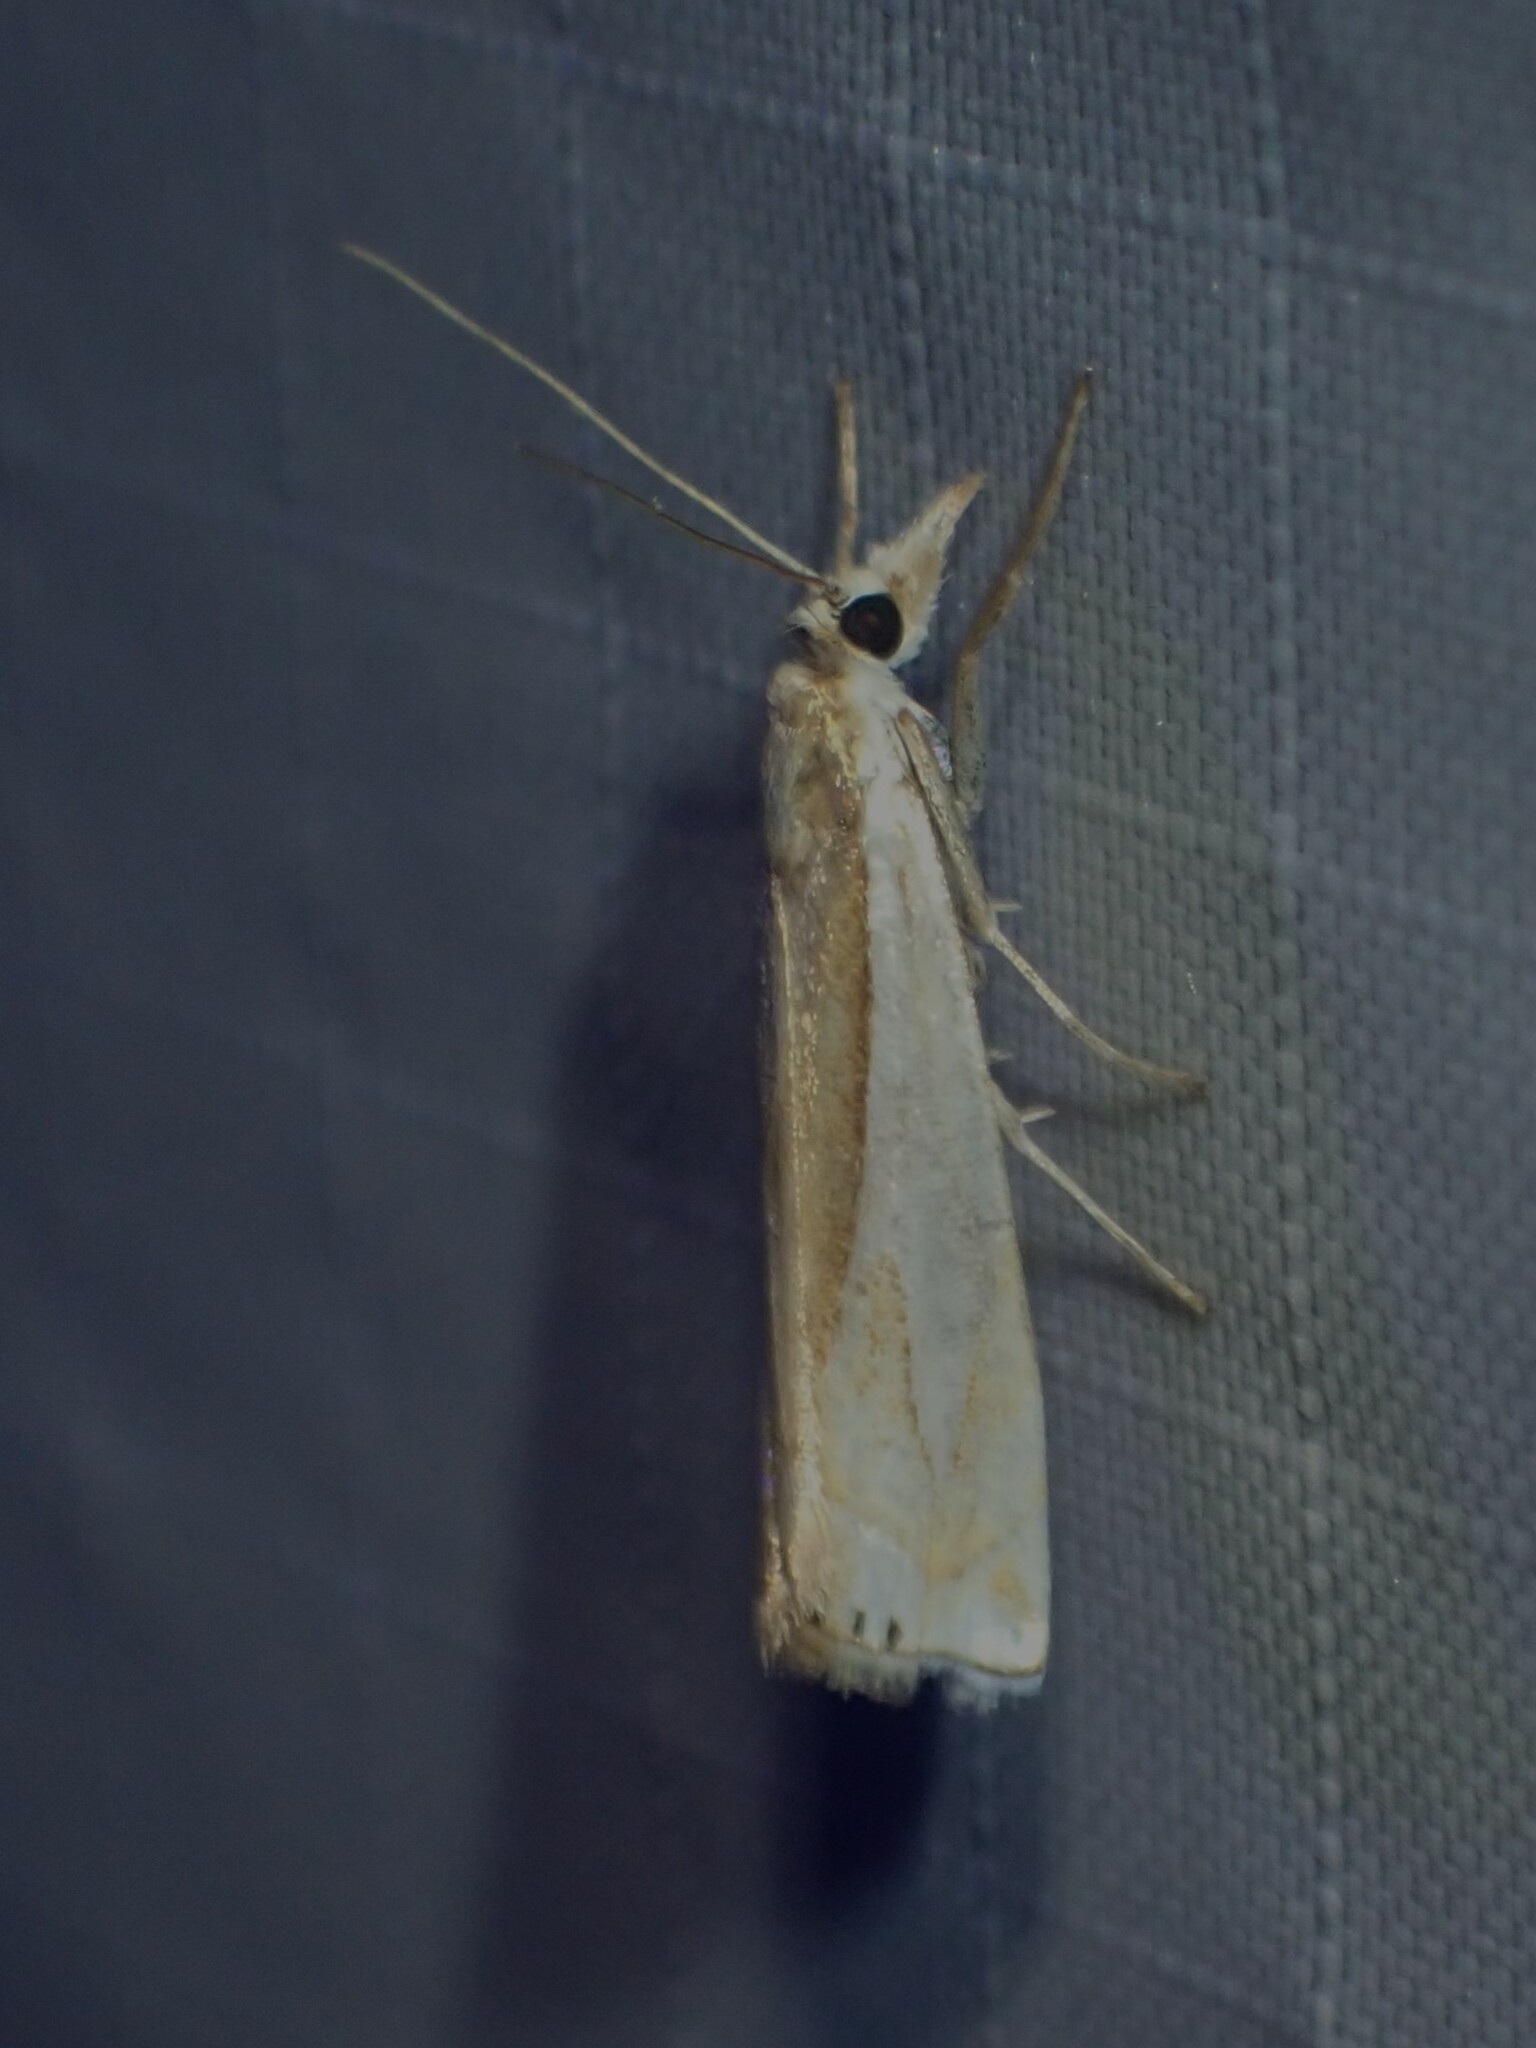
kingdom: Animalia
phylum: Arthropoda
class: Insecta
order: Lepidoptera
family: Crambidae
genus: Crambus
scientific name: Crambus bidens
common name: Forked grass-veneer
